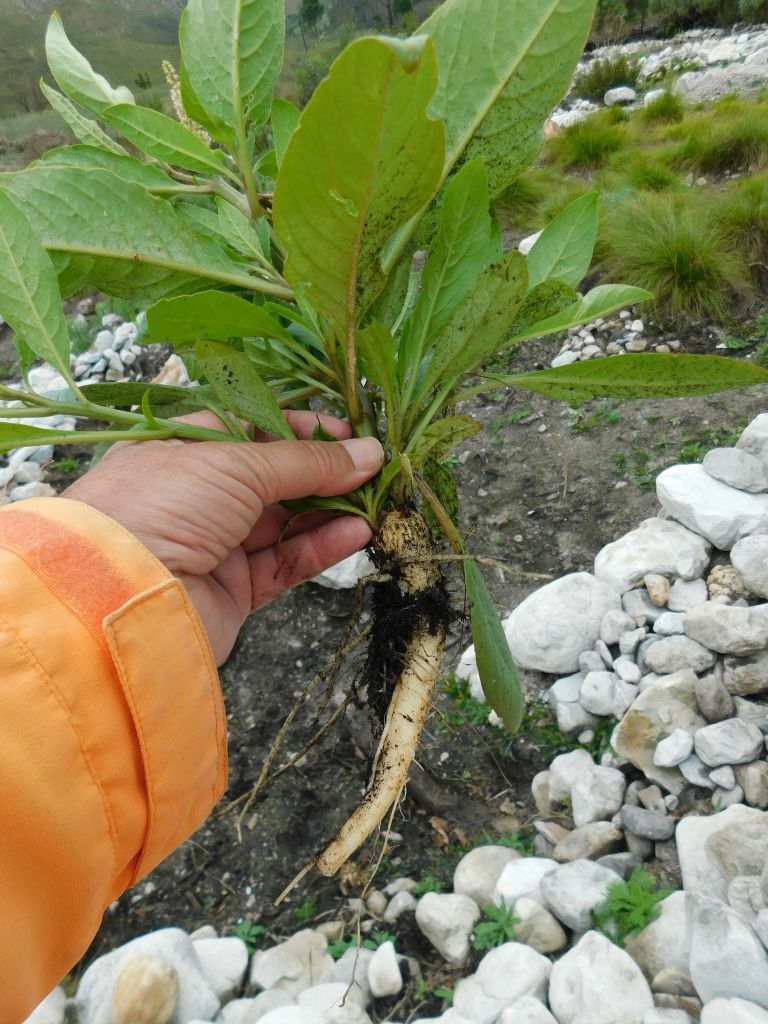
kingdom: Plantae
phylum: Tracheophyta
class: Magnoliopsida
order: Caryophyllales
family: Phytolaccaceae
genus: Phytolacca
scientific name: Phytolacca icosandra
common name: Button pokeweed
